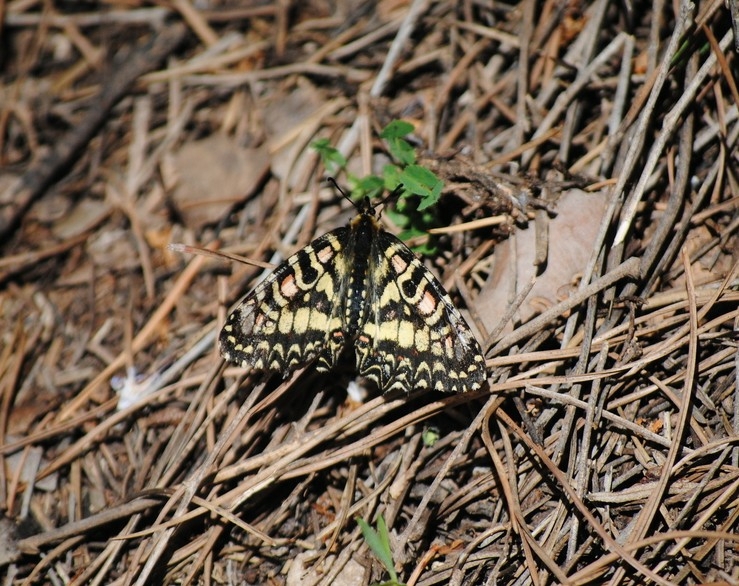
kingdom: Animalia
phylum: Arthropoda
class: Insecta
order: Lepidoptera
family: Papilionidae
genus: Zerynthia
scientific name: Zerynthia rumina
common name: Spanish festoon
